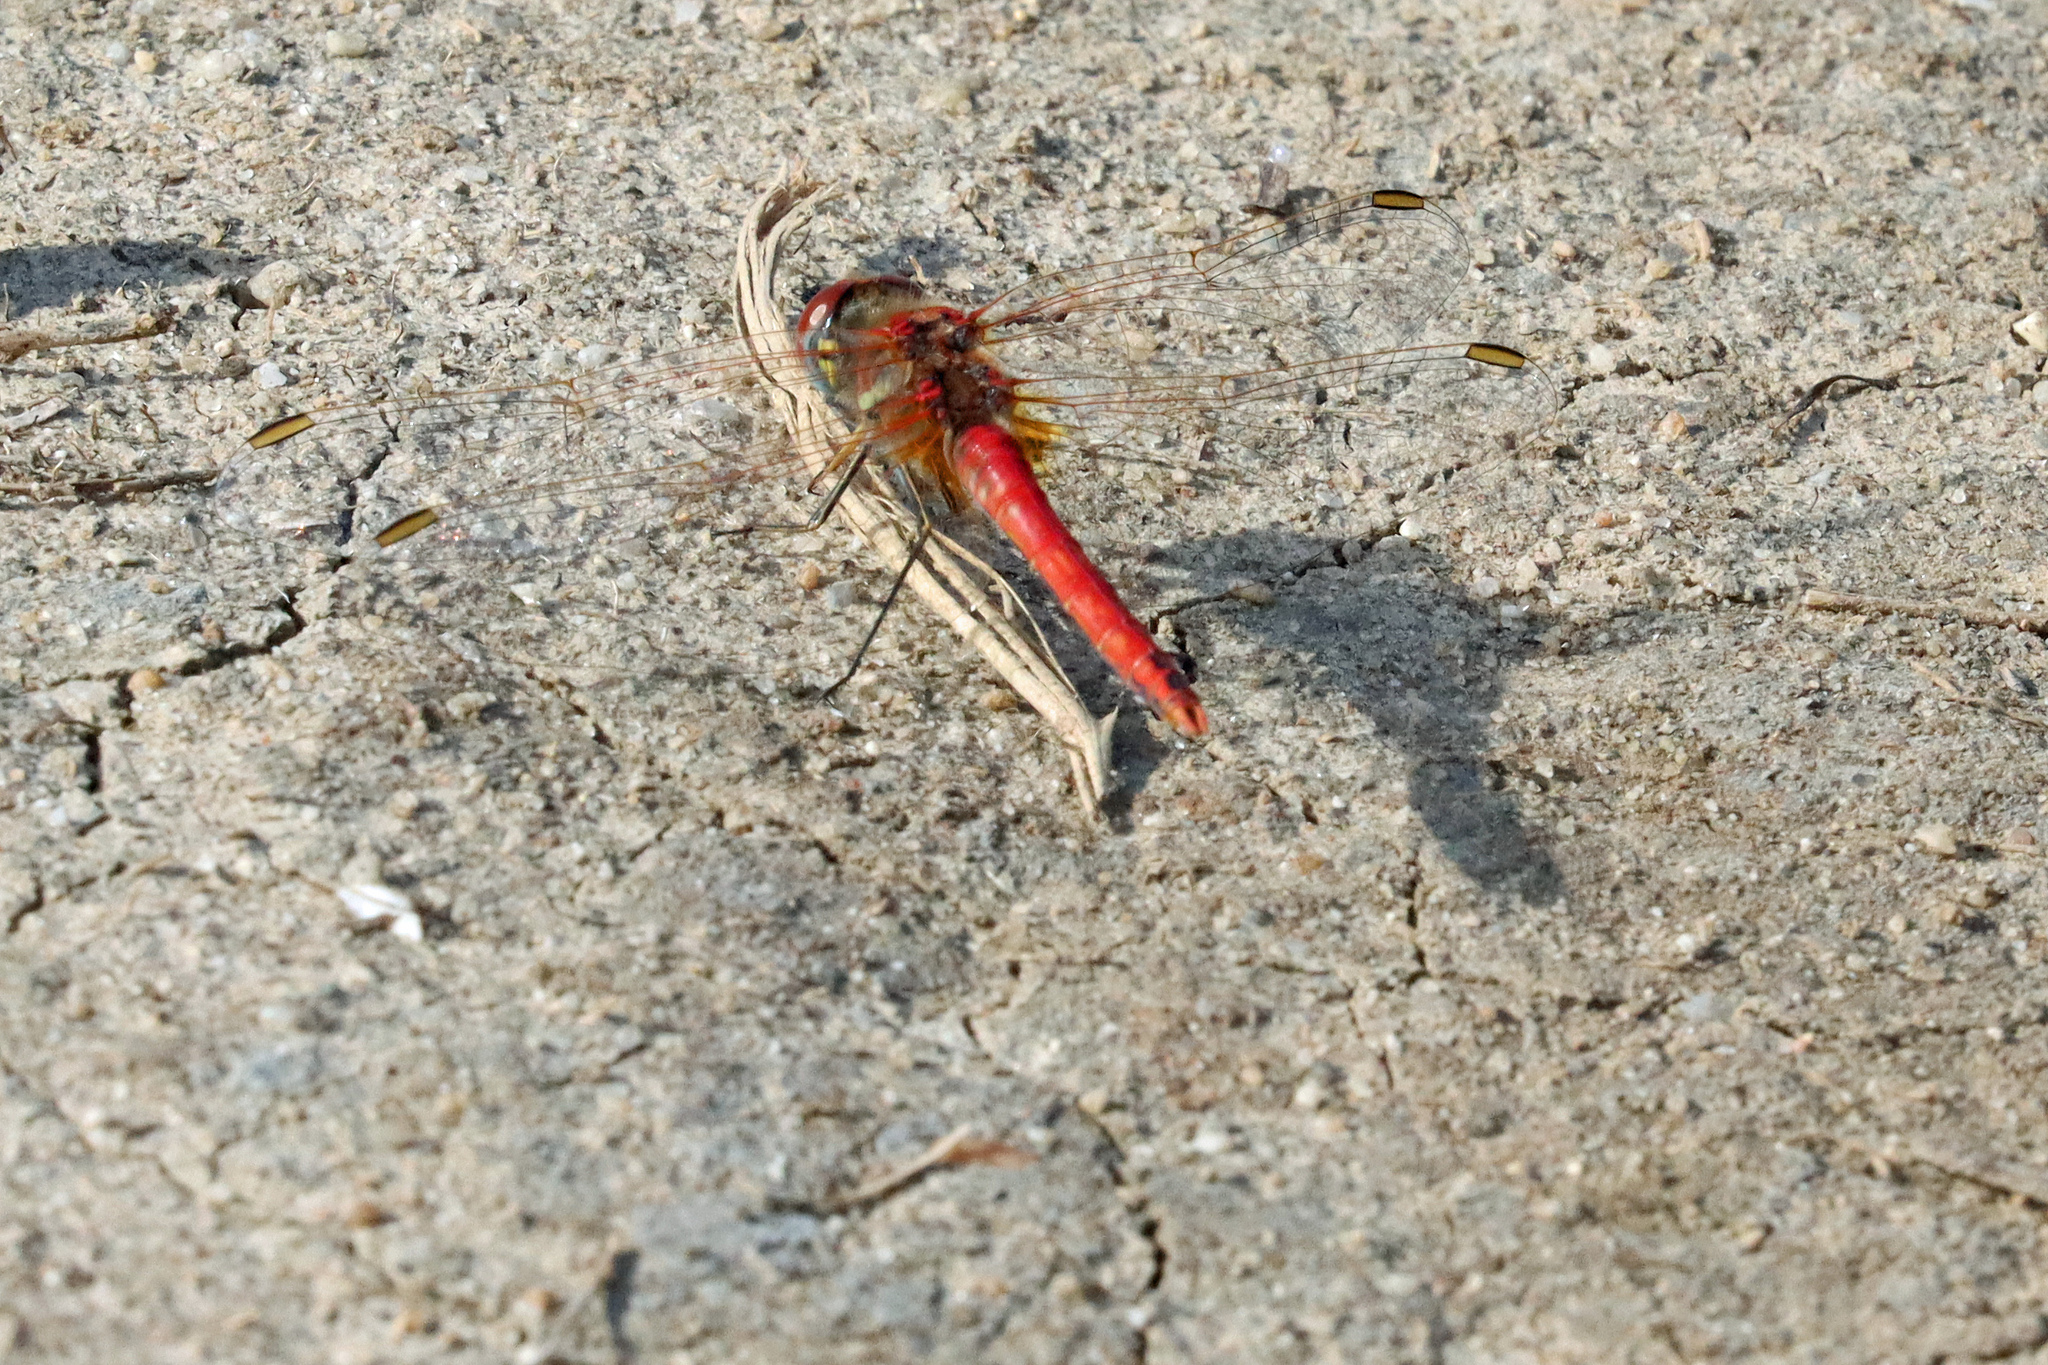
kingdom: Animalia
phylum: Arthropoda
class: Insecta
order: Odonata
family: Libellulidae
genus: Sympetrum
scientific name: Sympetrum fonscolombii
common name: Red-veined darter
